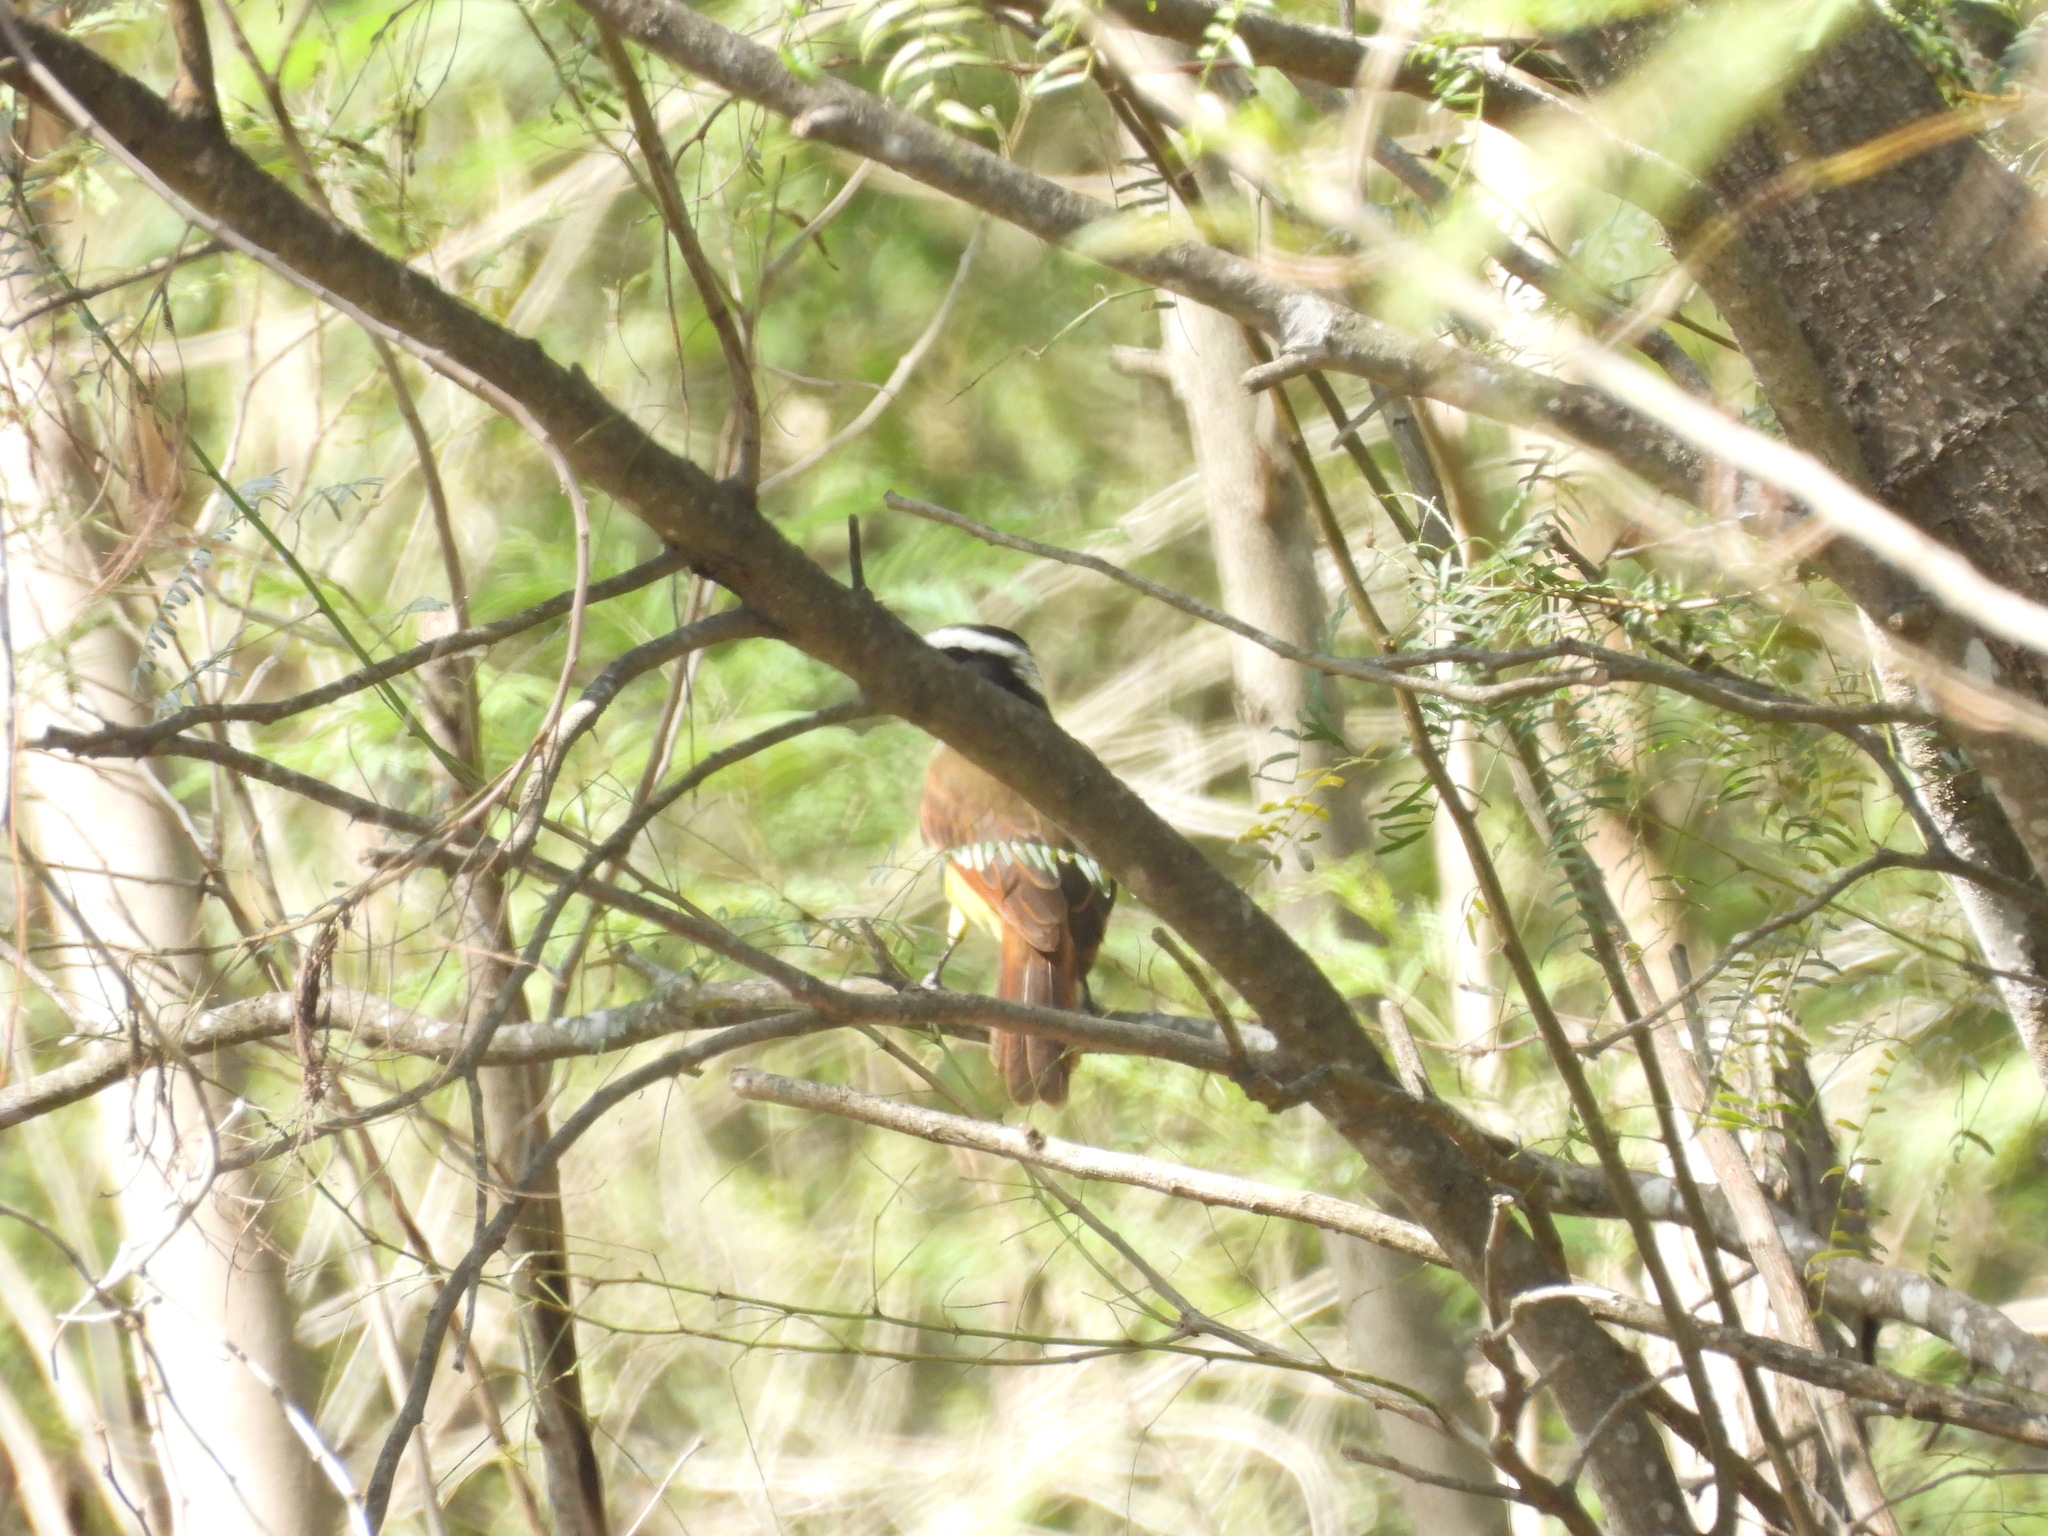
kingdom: Animalia
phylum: Chordata
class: Aves
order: Passeriformes
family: Tyrannidae
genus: Pitangus
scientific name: Pitangus sulphuratus
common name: Great kiskadee
